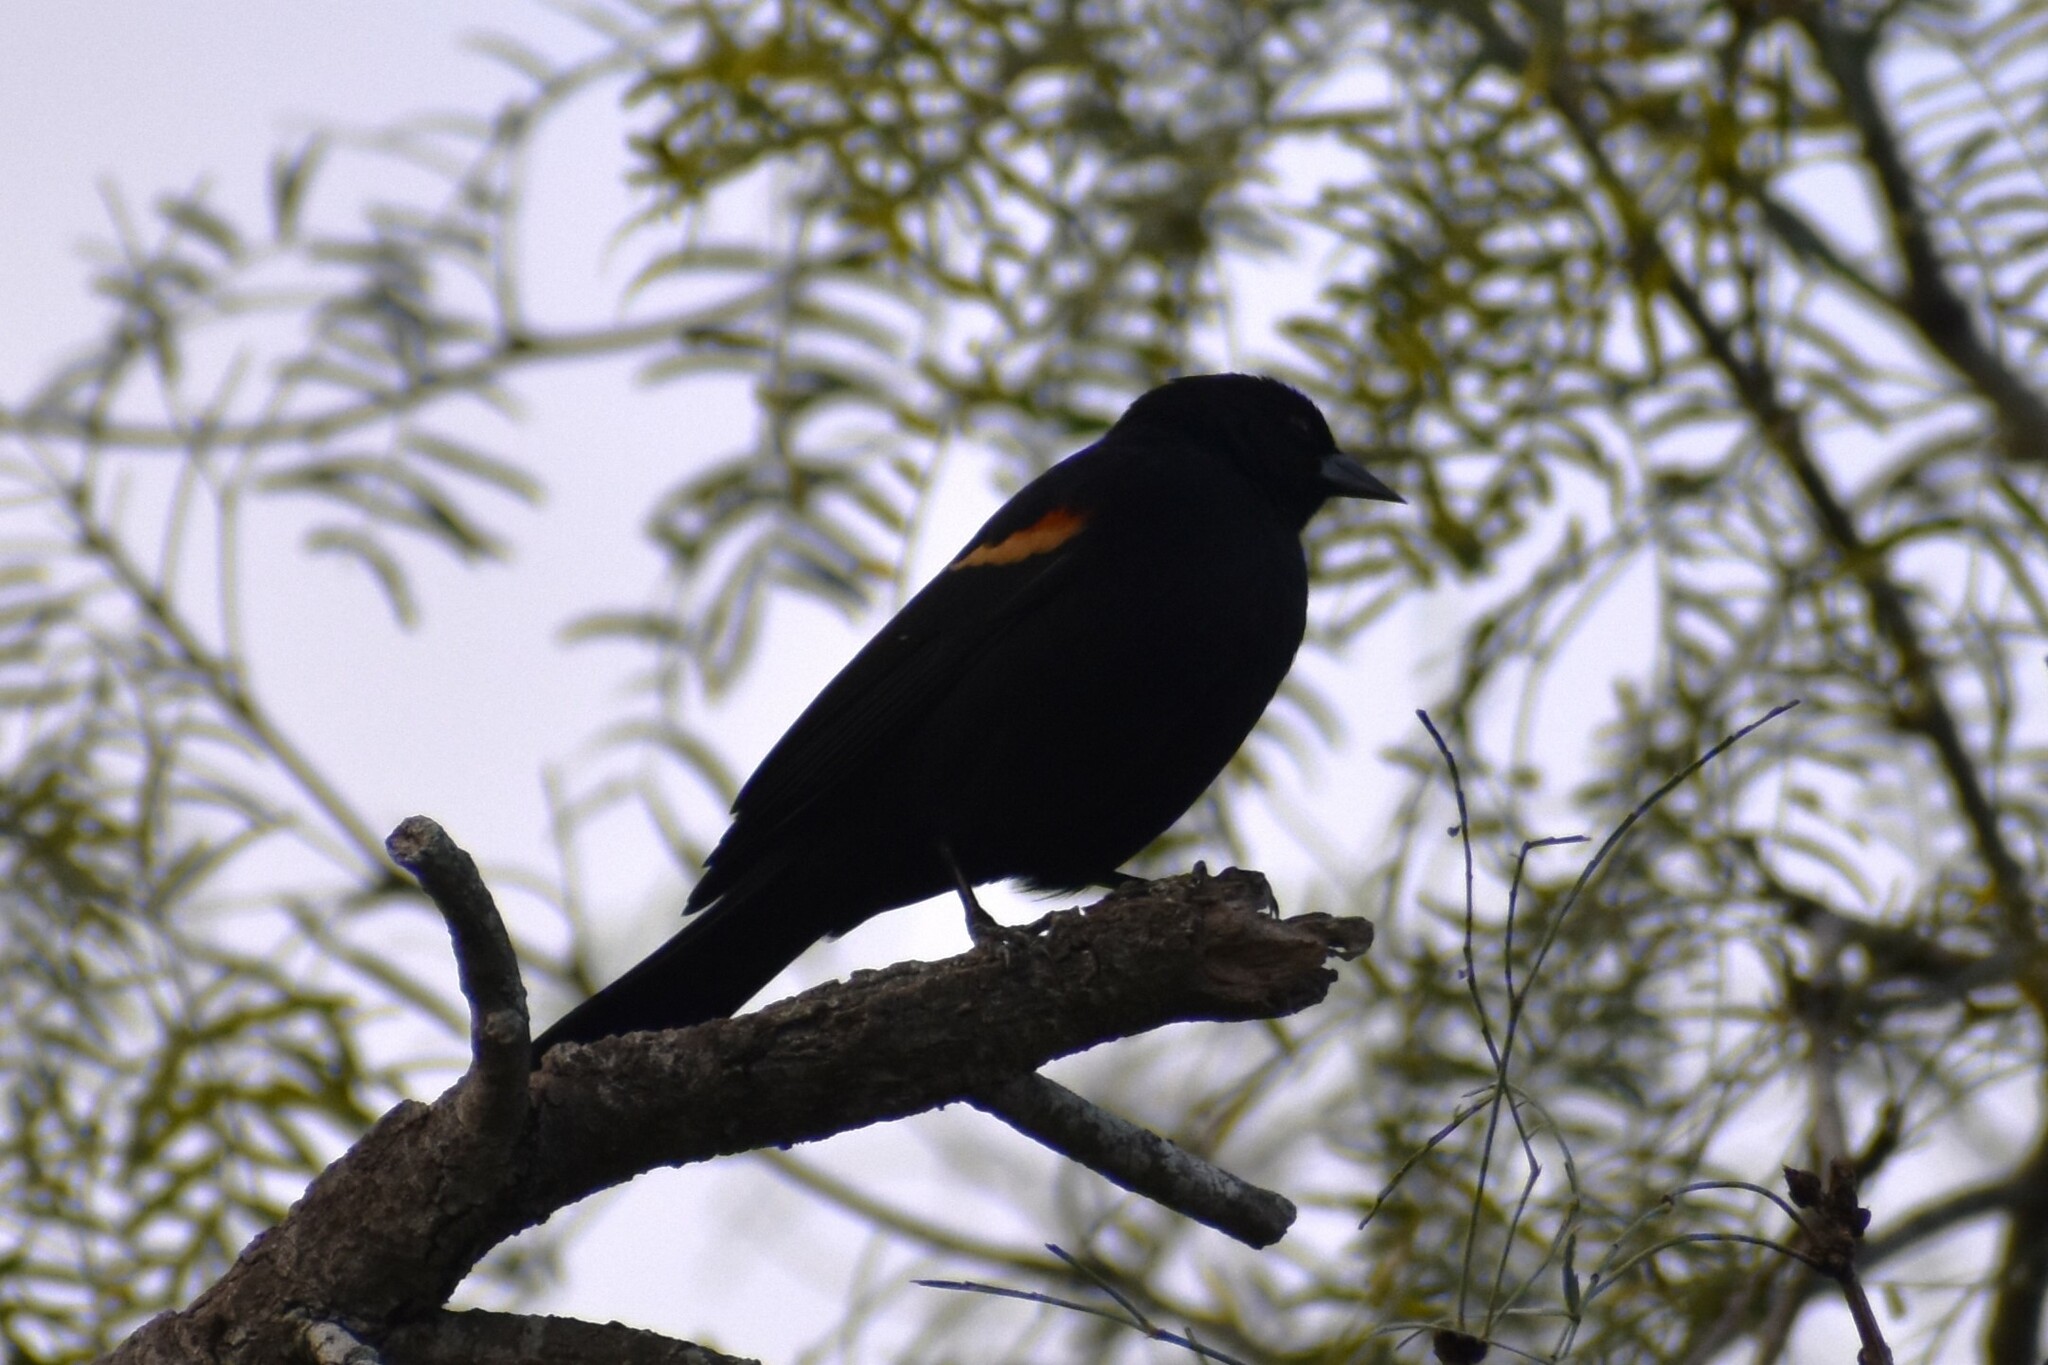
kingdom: Animalia
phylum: Chordata
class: Aves
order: Passeriformes
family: Icteridae
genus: Agelaius
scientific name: Agelaius phoeniceus
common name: Red-winged blackbird
